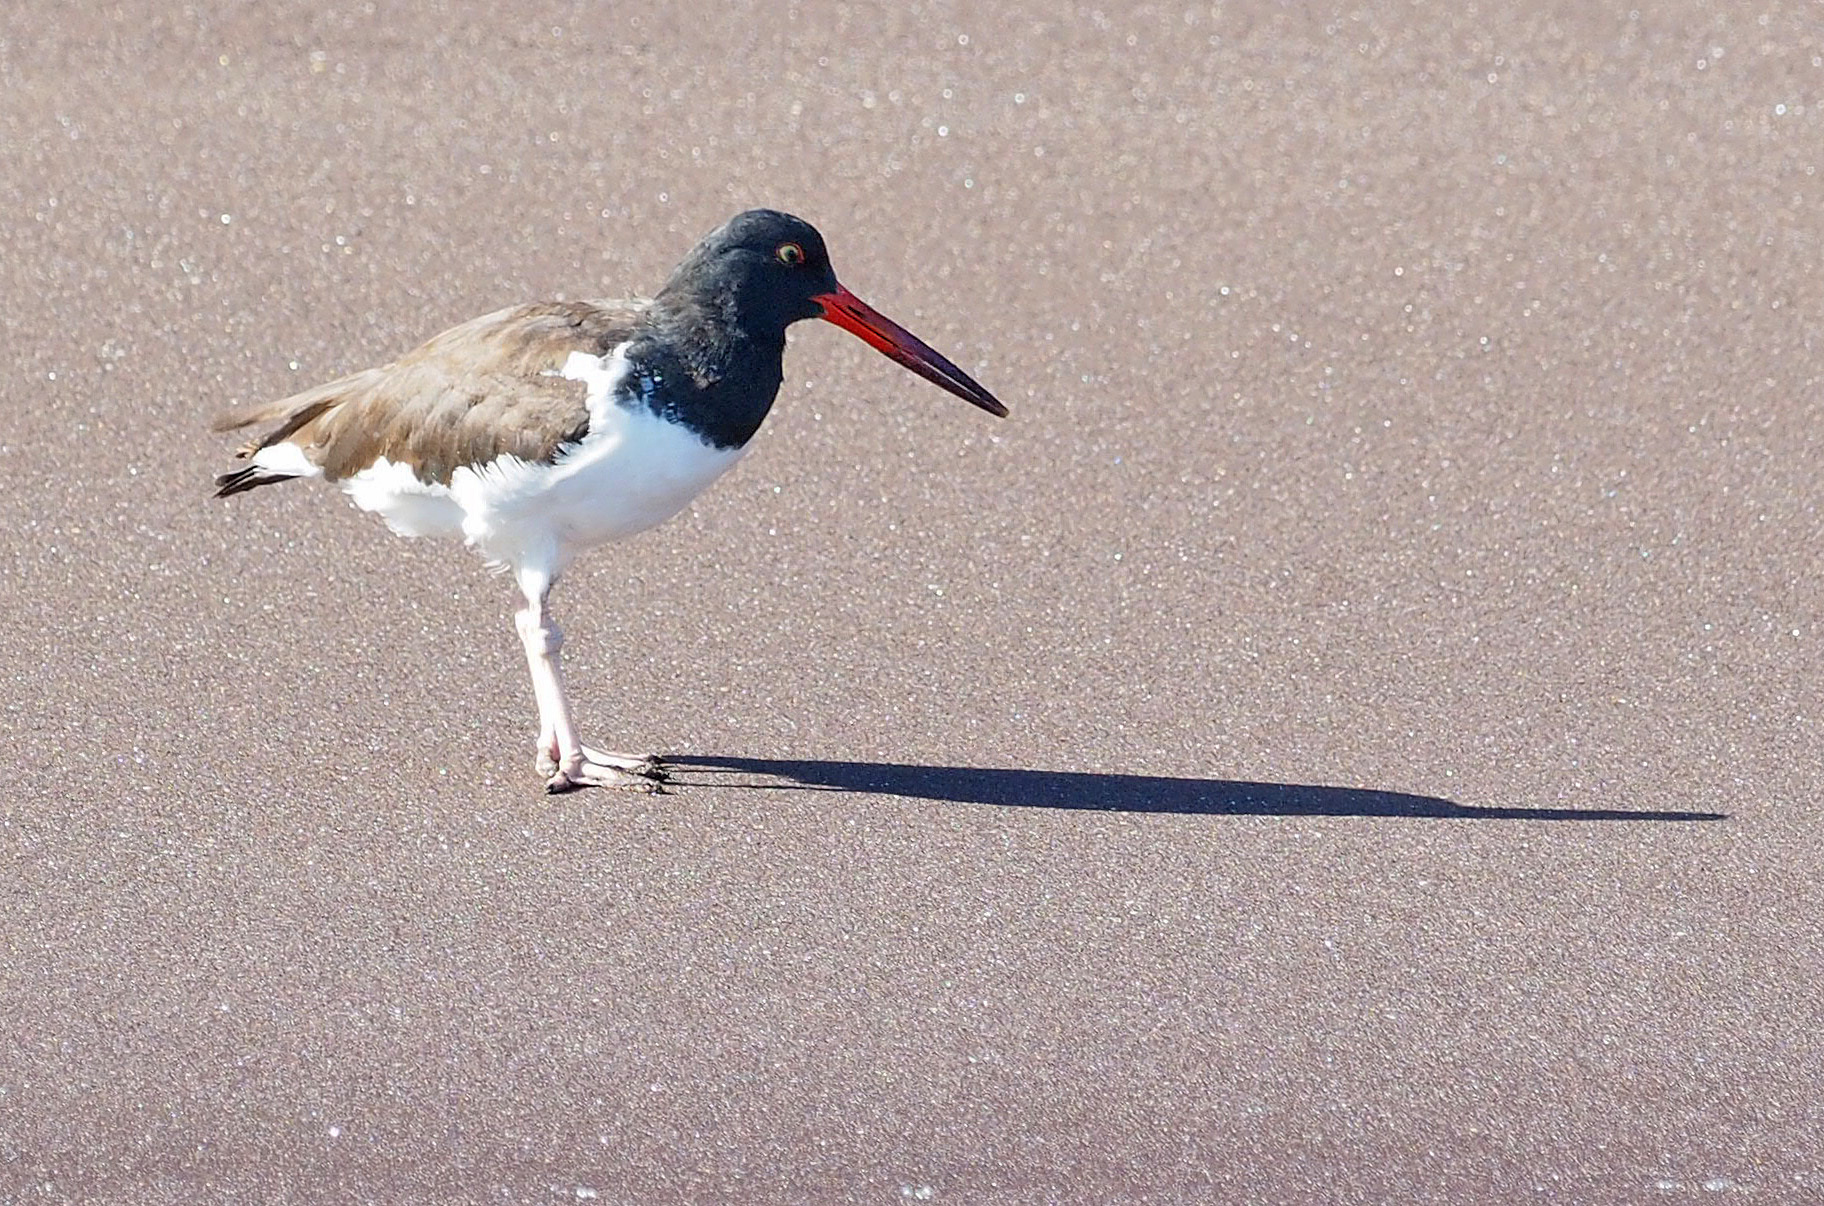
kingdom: Animalia
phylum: Chordata
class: Aves
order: Charadriiformes
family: Haematopodidae
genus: Haematopus
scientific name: Haematopus palliatus
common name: American oystercatcher
